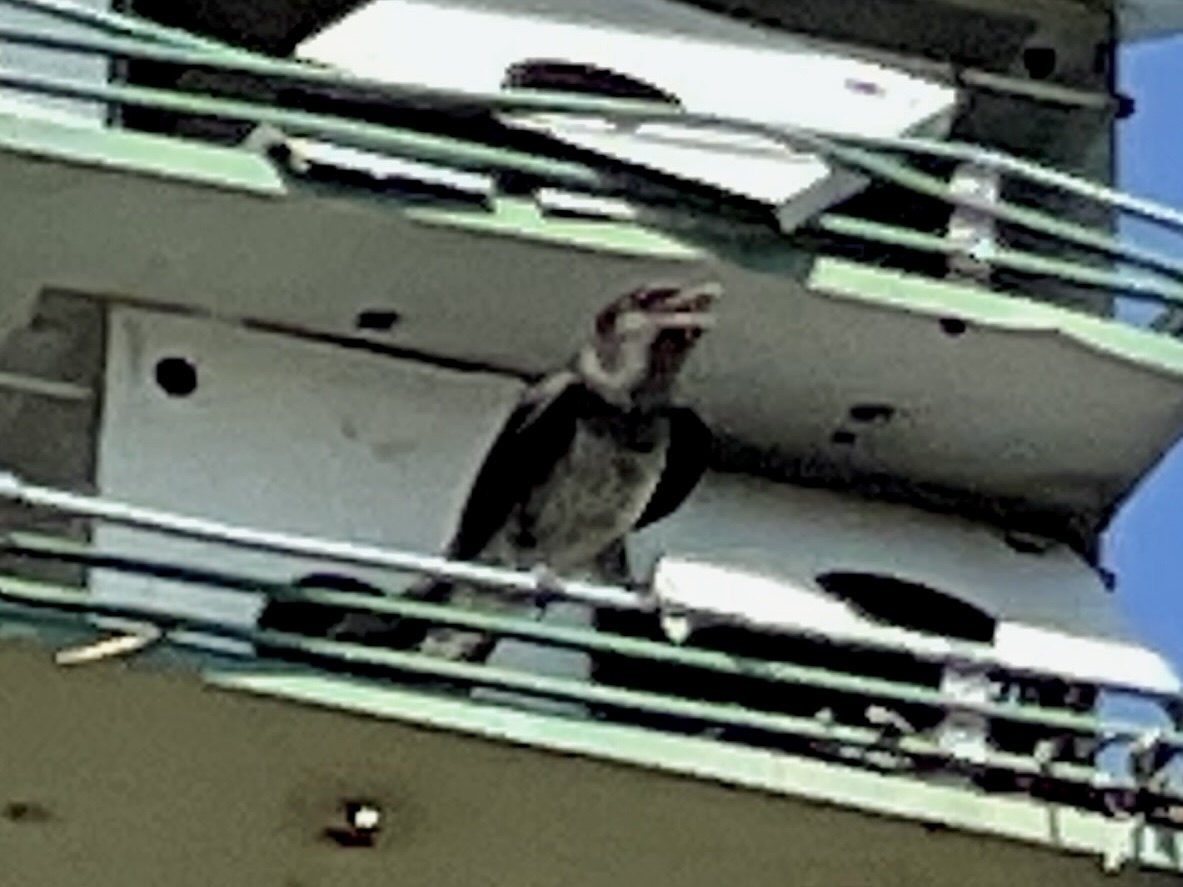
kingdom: Animalia
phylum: Chordata
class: Aves
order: Passeriformes
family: Hirundinidae
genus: Progne
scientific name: Progne subis
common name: Purple martin
